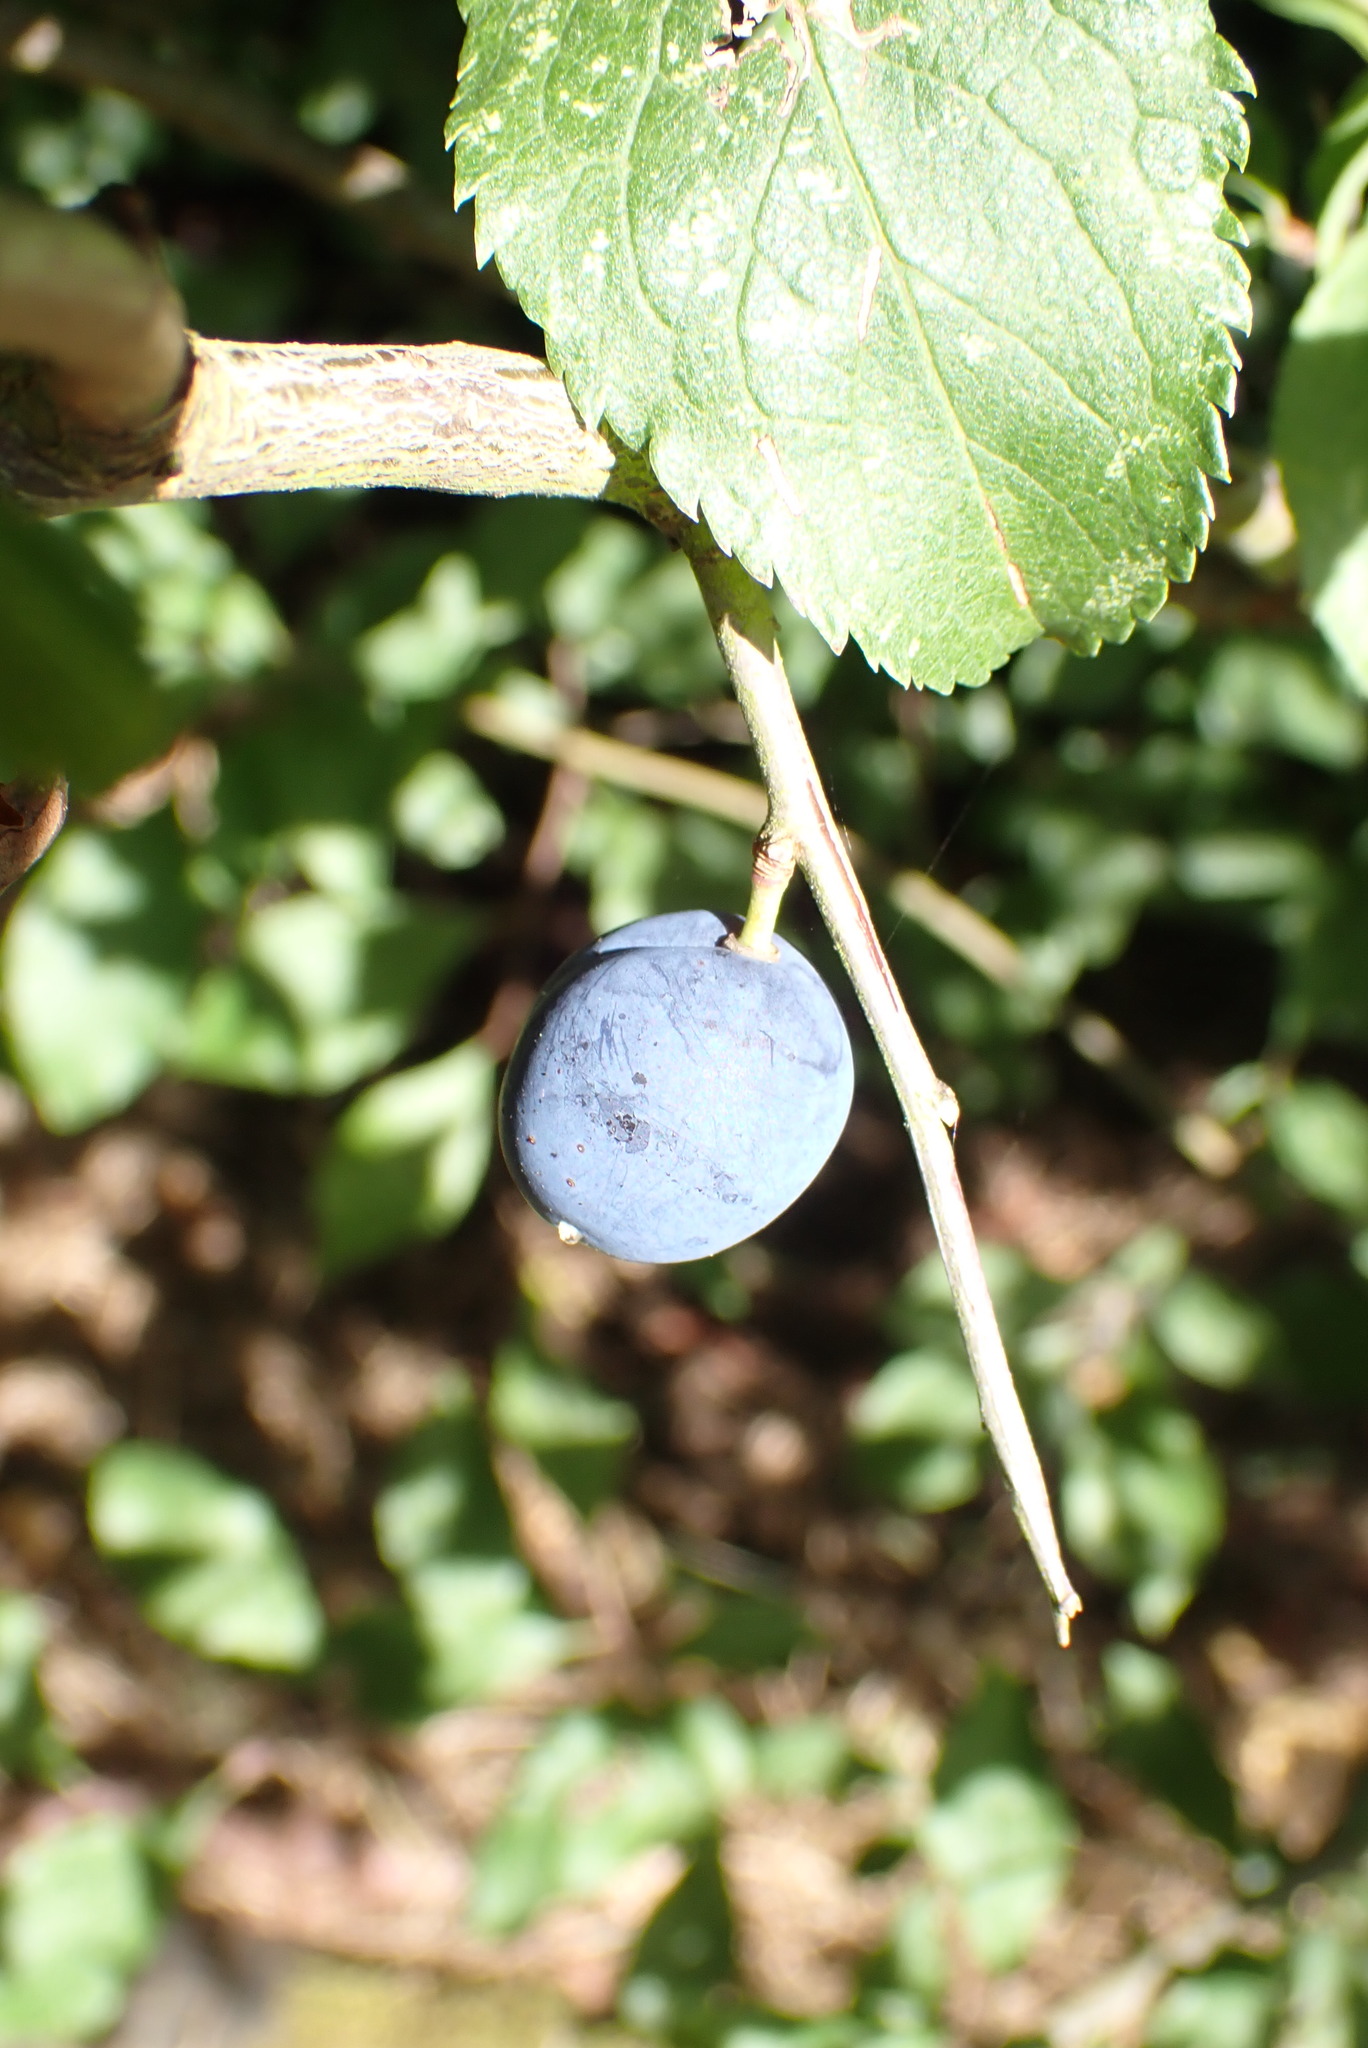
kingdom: Plantae
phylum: Tracheophyta
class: Magnoliopsida
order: Rosales
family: Rosaceae
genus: Prunus
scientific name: Prunus spinosa
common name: Blackthorn
